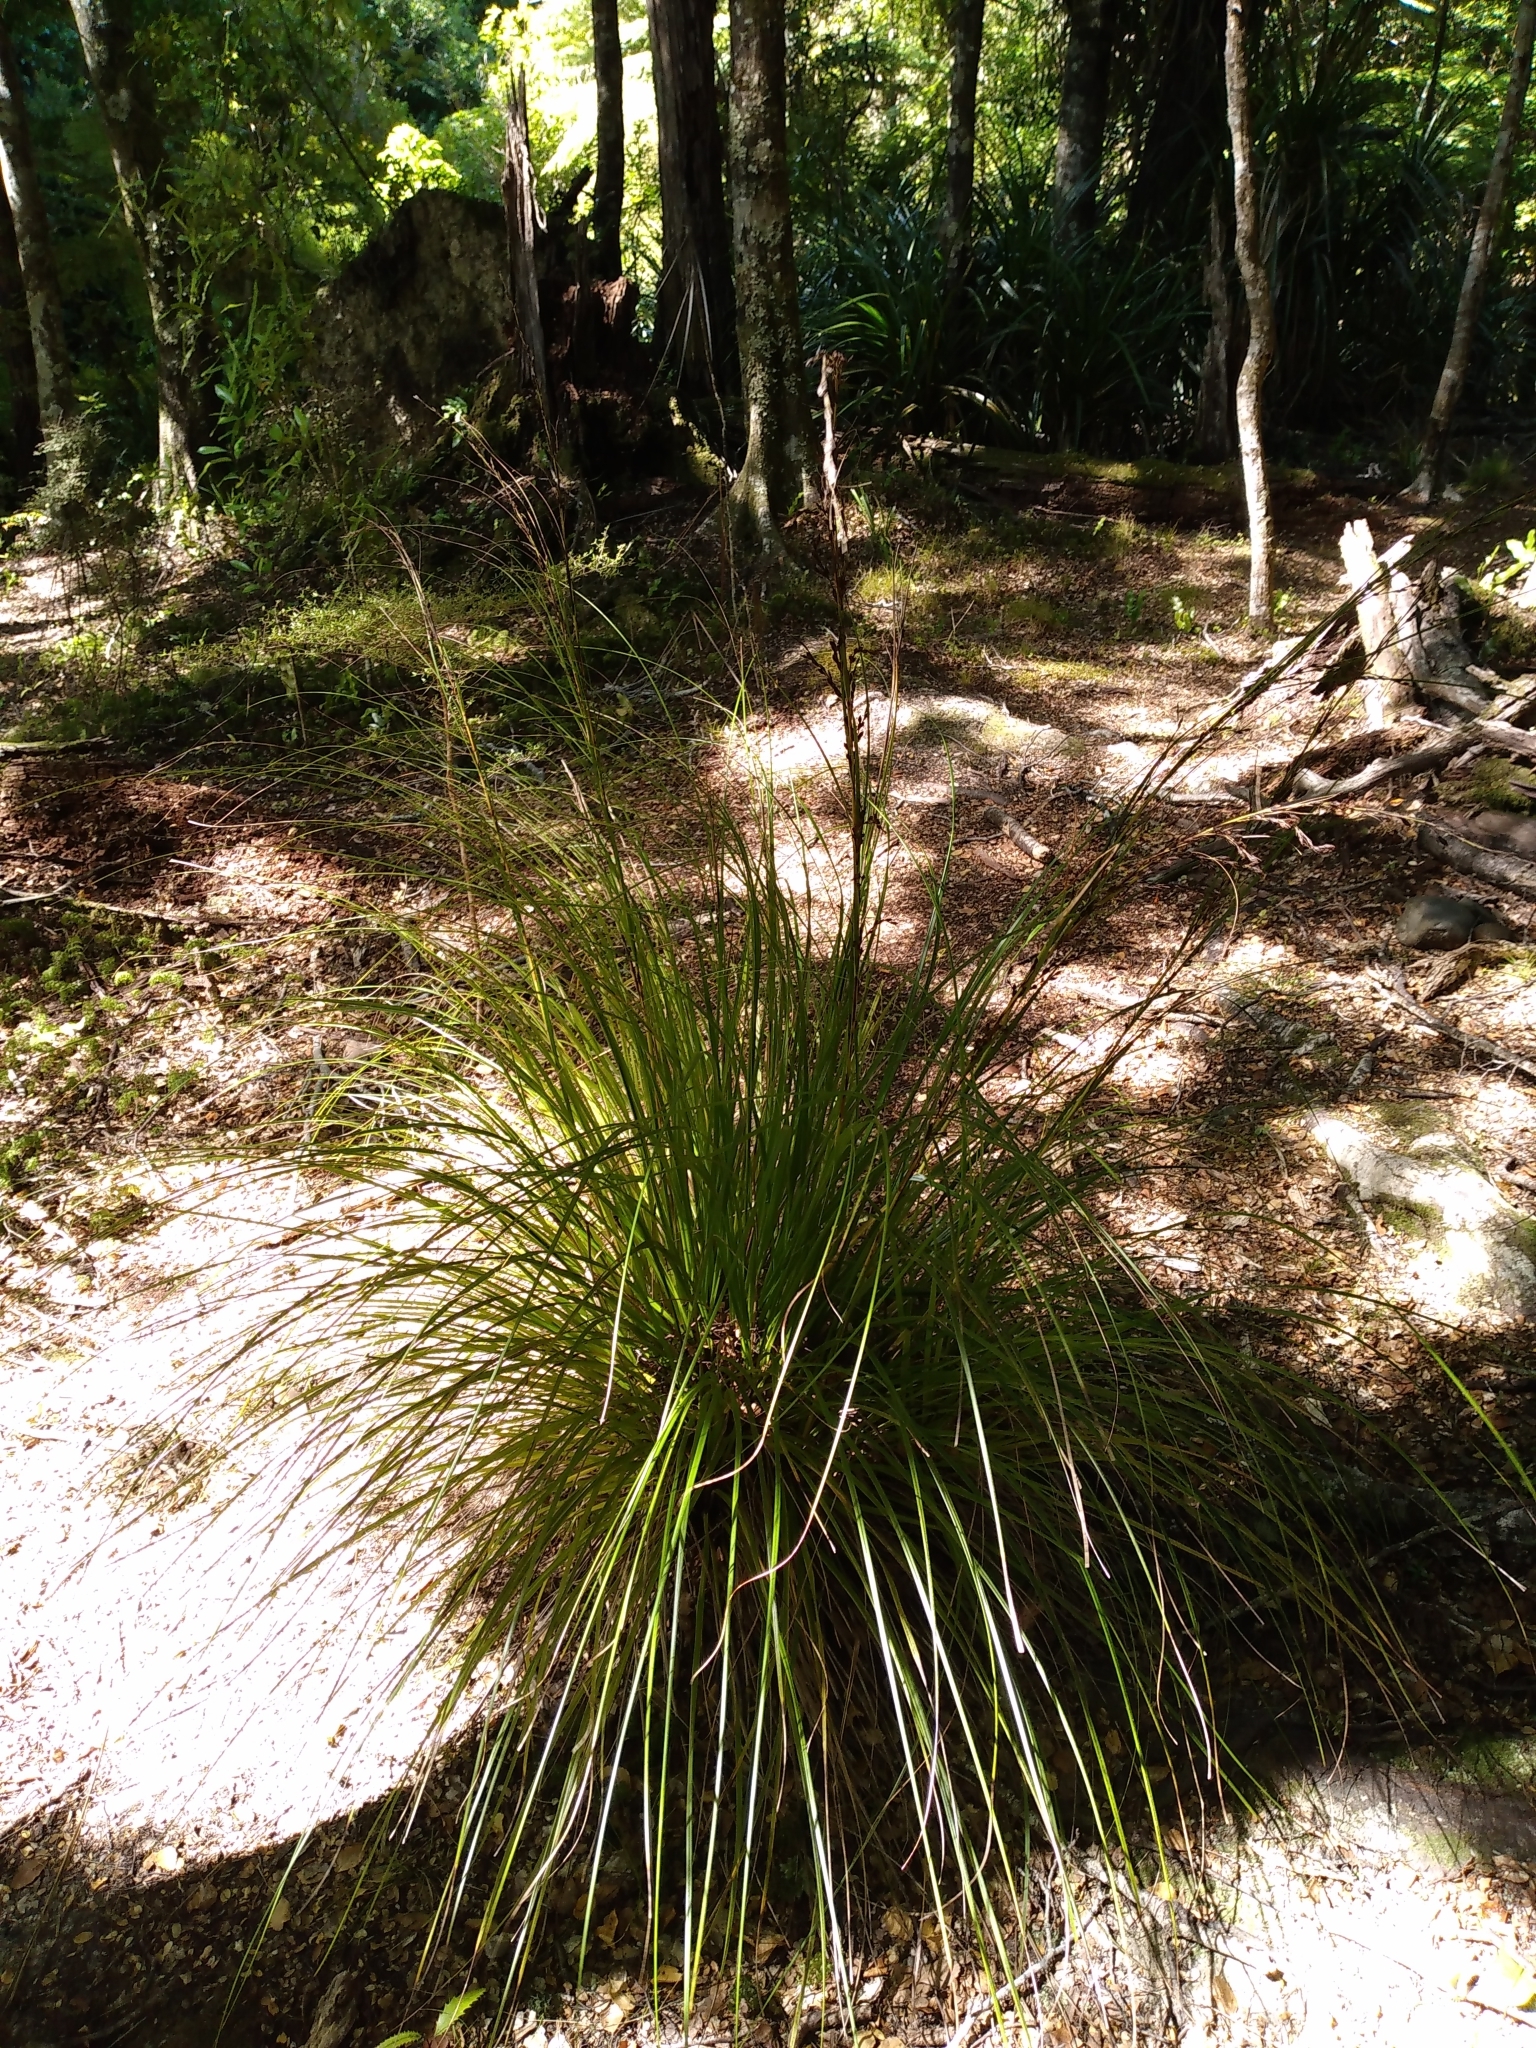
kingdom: Plantae
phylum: Tracheophyta
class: Liliopsida
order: Poales
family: Cyperaceae
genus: Gahnia
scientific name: Gahnia pauciflora
